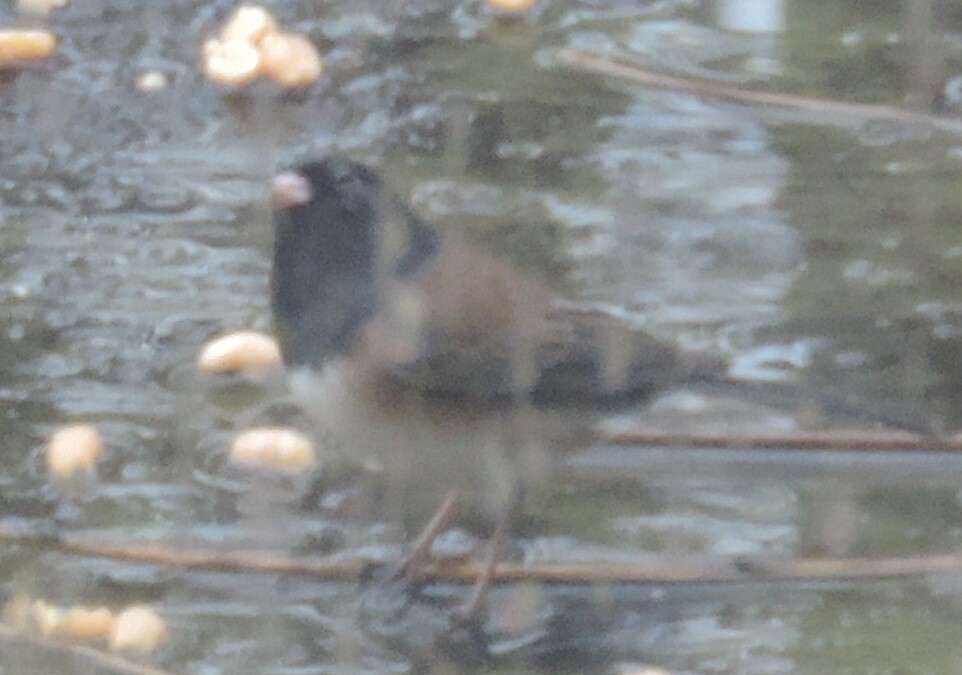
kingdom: Animalia
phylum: Chordata
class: Aves
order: Passeriformes
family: Passerellidae
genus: Junco
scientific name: Junco hyemalis
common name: Dark-eyed junco
